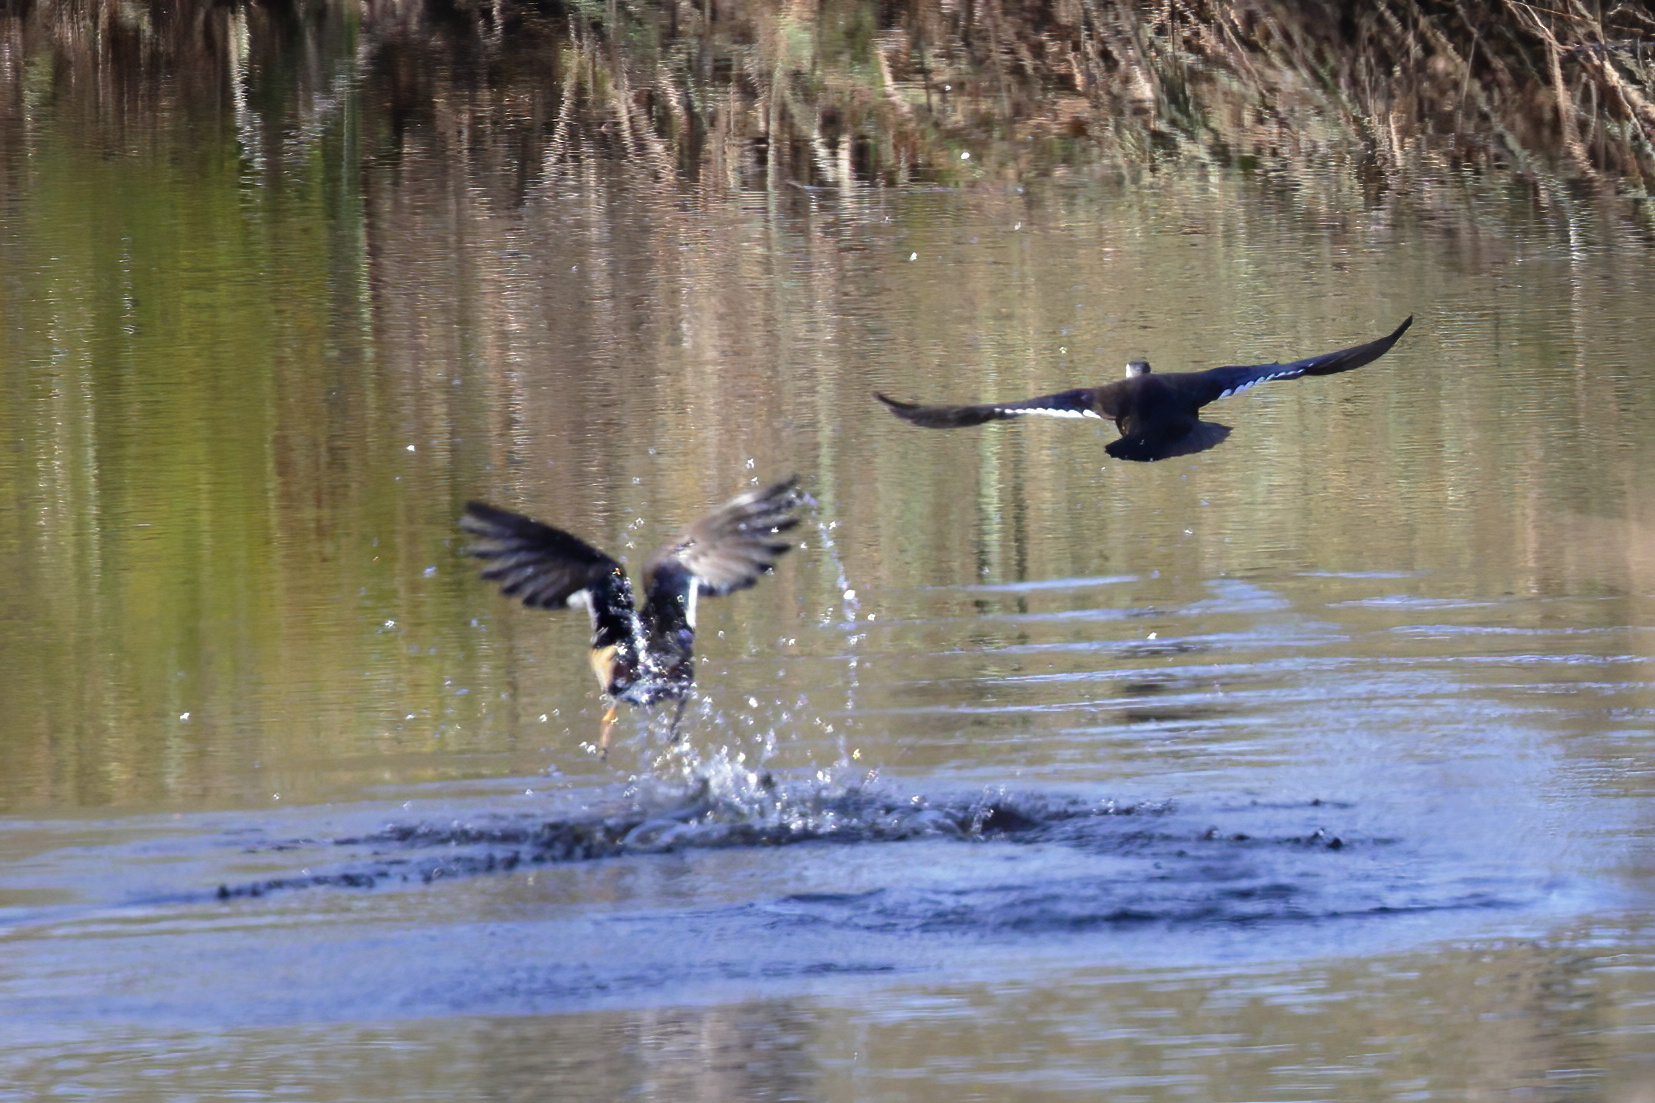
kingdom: Animalia
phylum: Chordata
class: Aves
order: Anseriformes
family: Anatidae
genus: Aix
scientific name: Aix sponsa
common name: Wood duck
